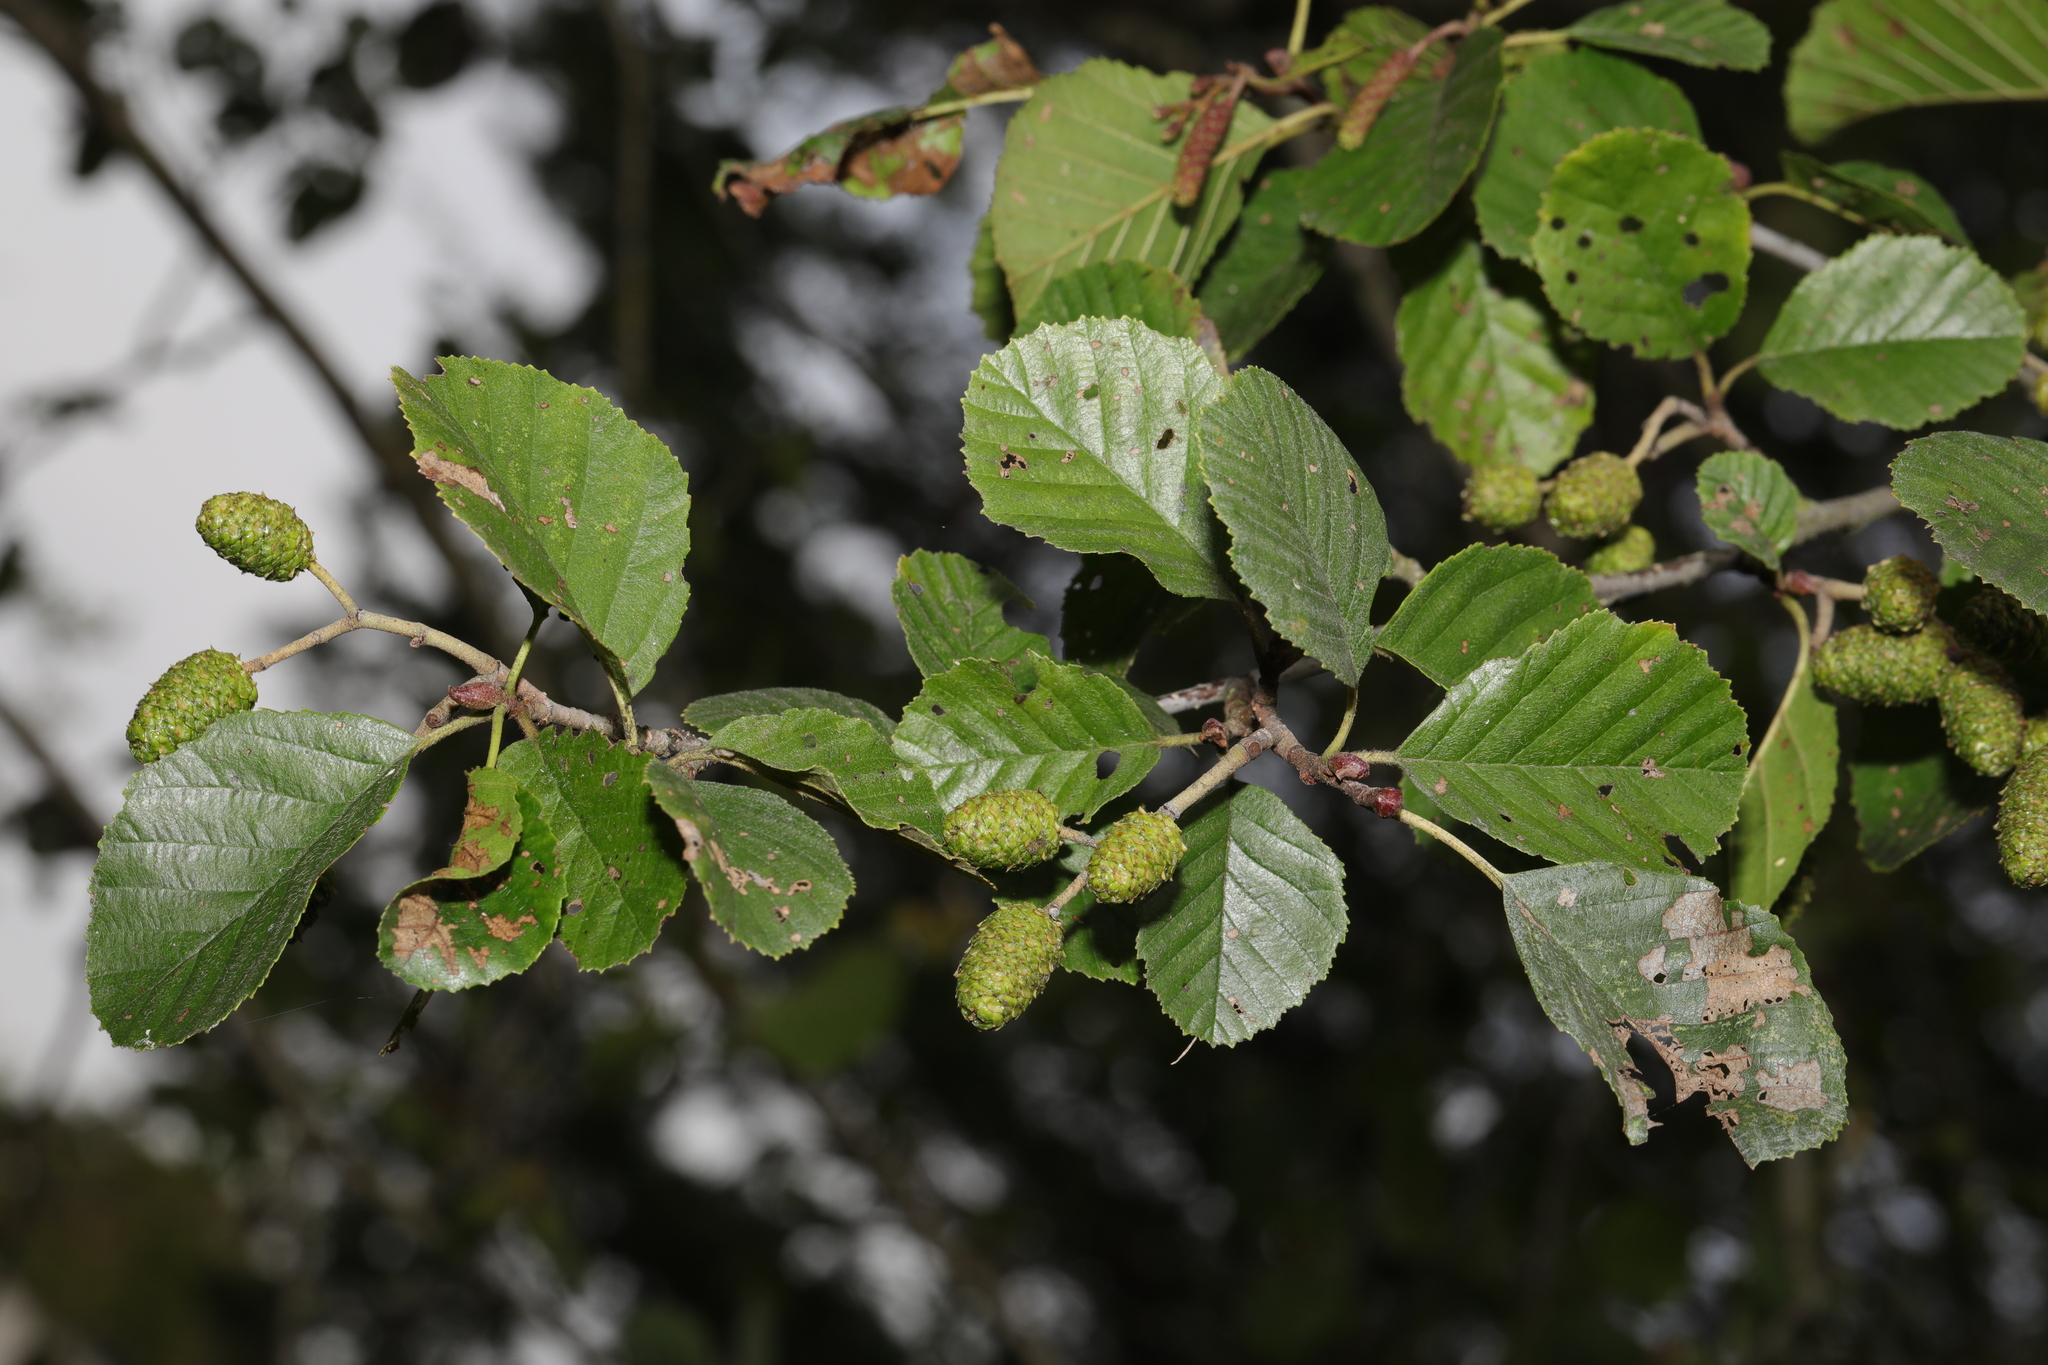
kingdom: Plantae
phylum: Tracheophyta
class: Magnoliopsida
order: Fagales
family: Betulaceae
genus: Alnus
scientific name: Alnus glutinosa
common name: Black alder
